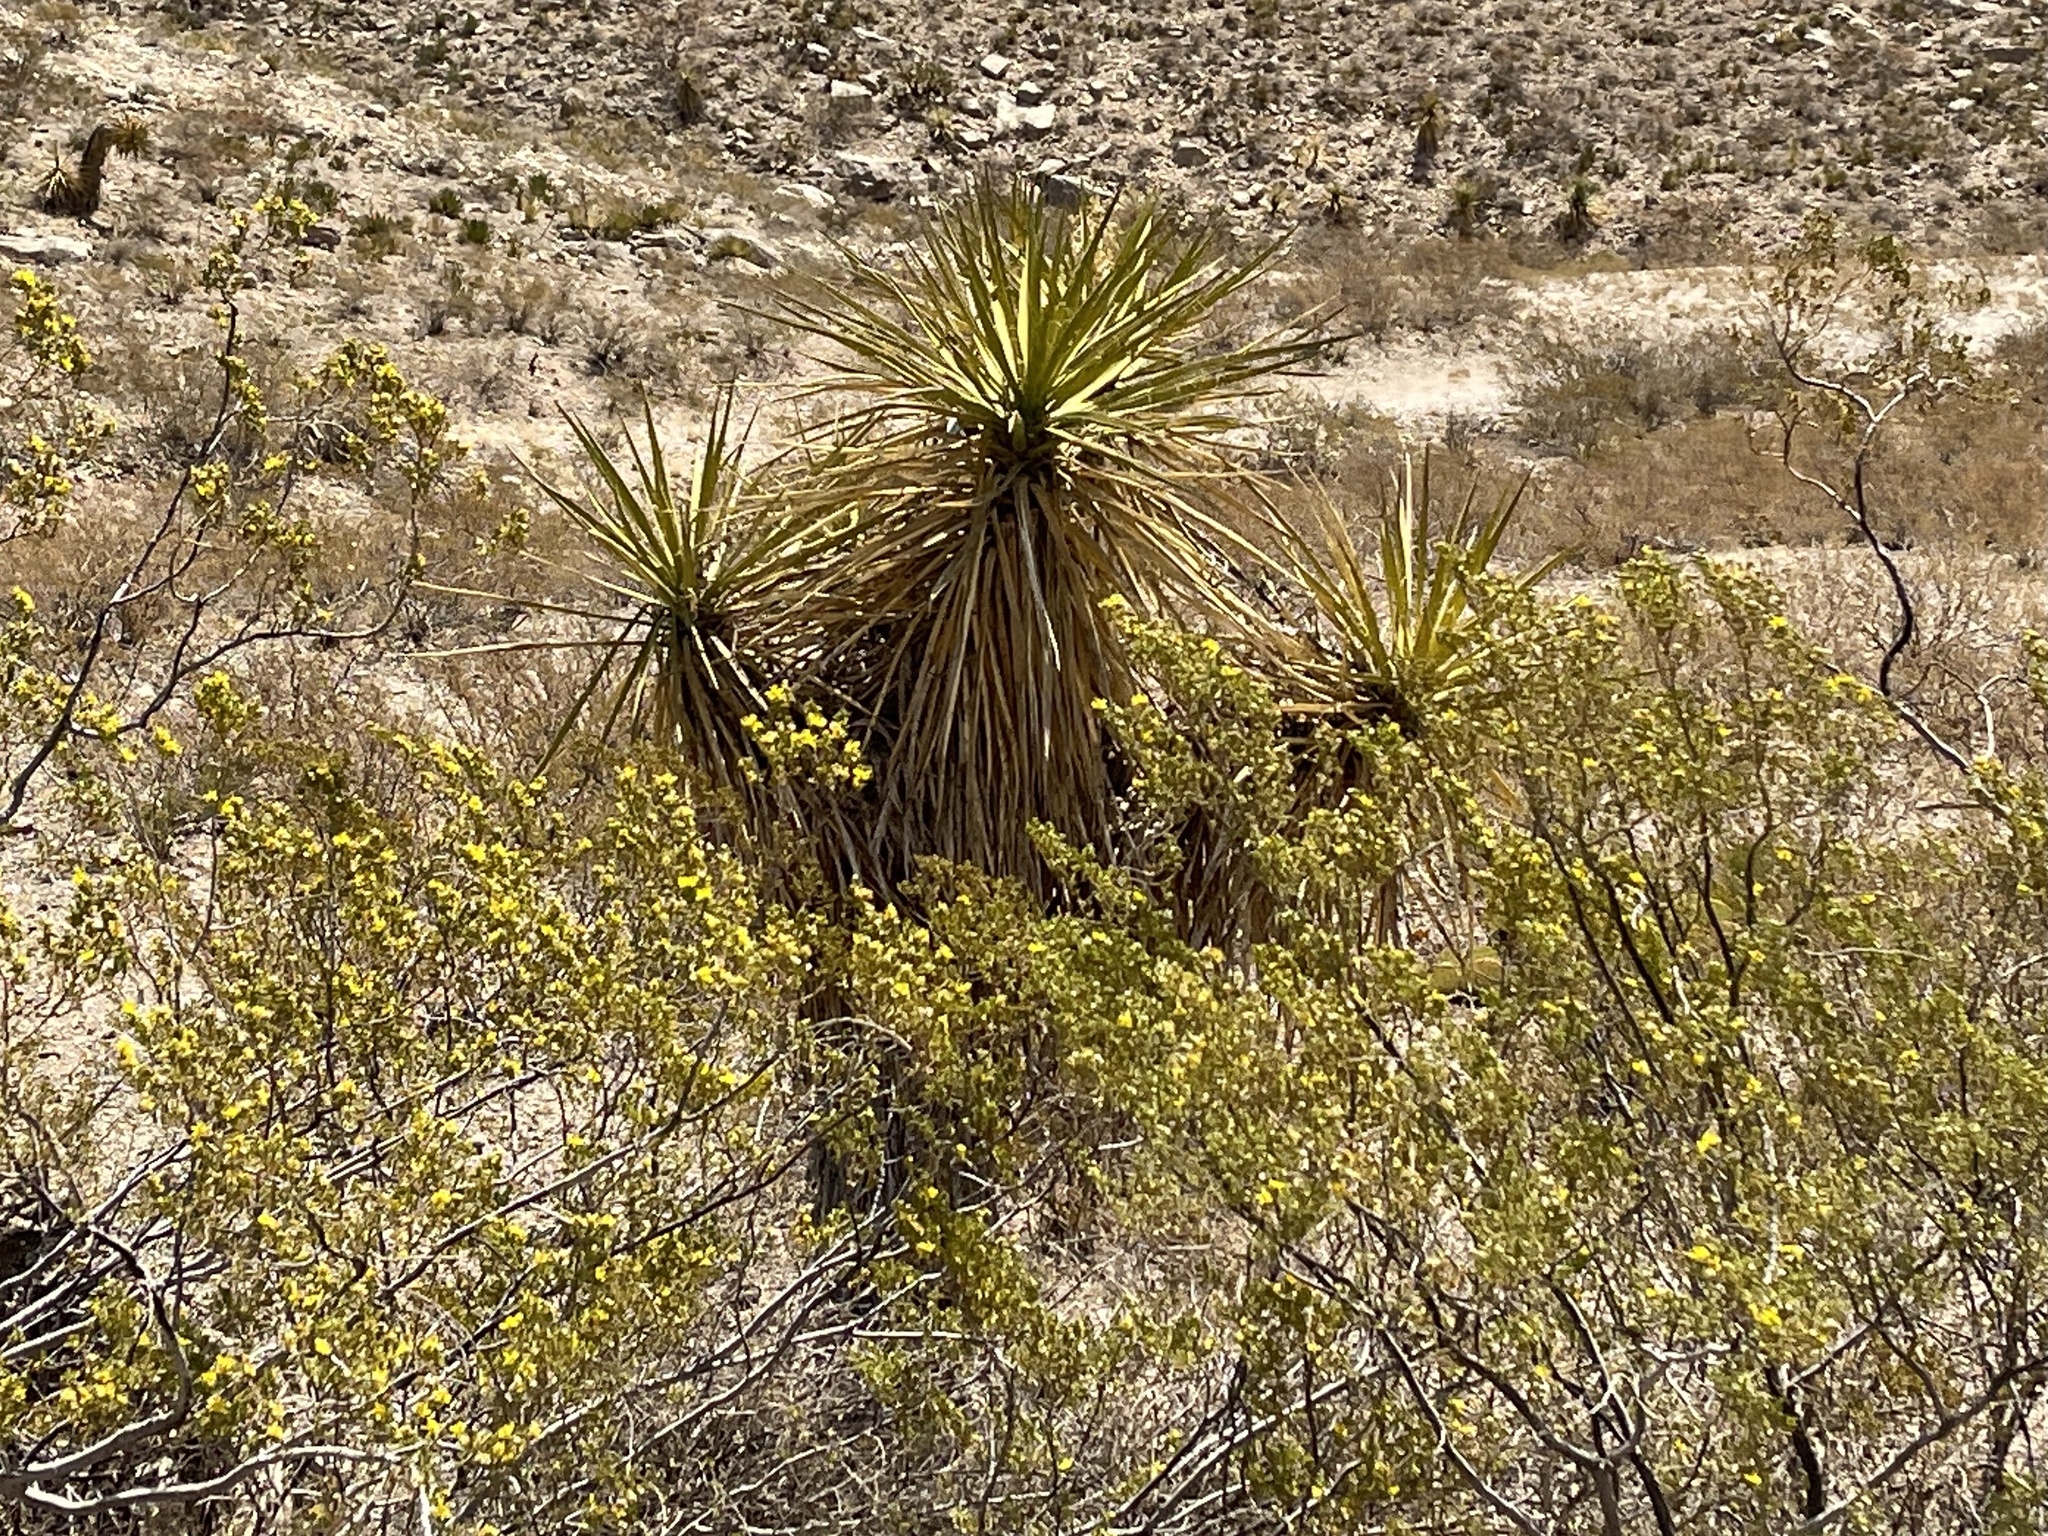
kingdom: Plantae
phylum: Tracheophyta
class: Liliopsida
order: Asparagales
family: Asparagaceae
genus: Yucca
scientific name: Yucca treculiana
